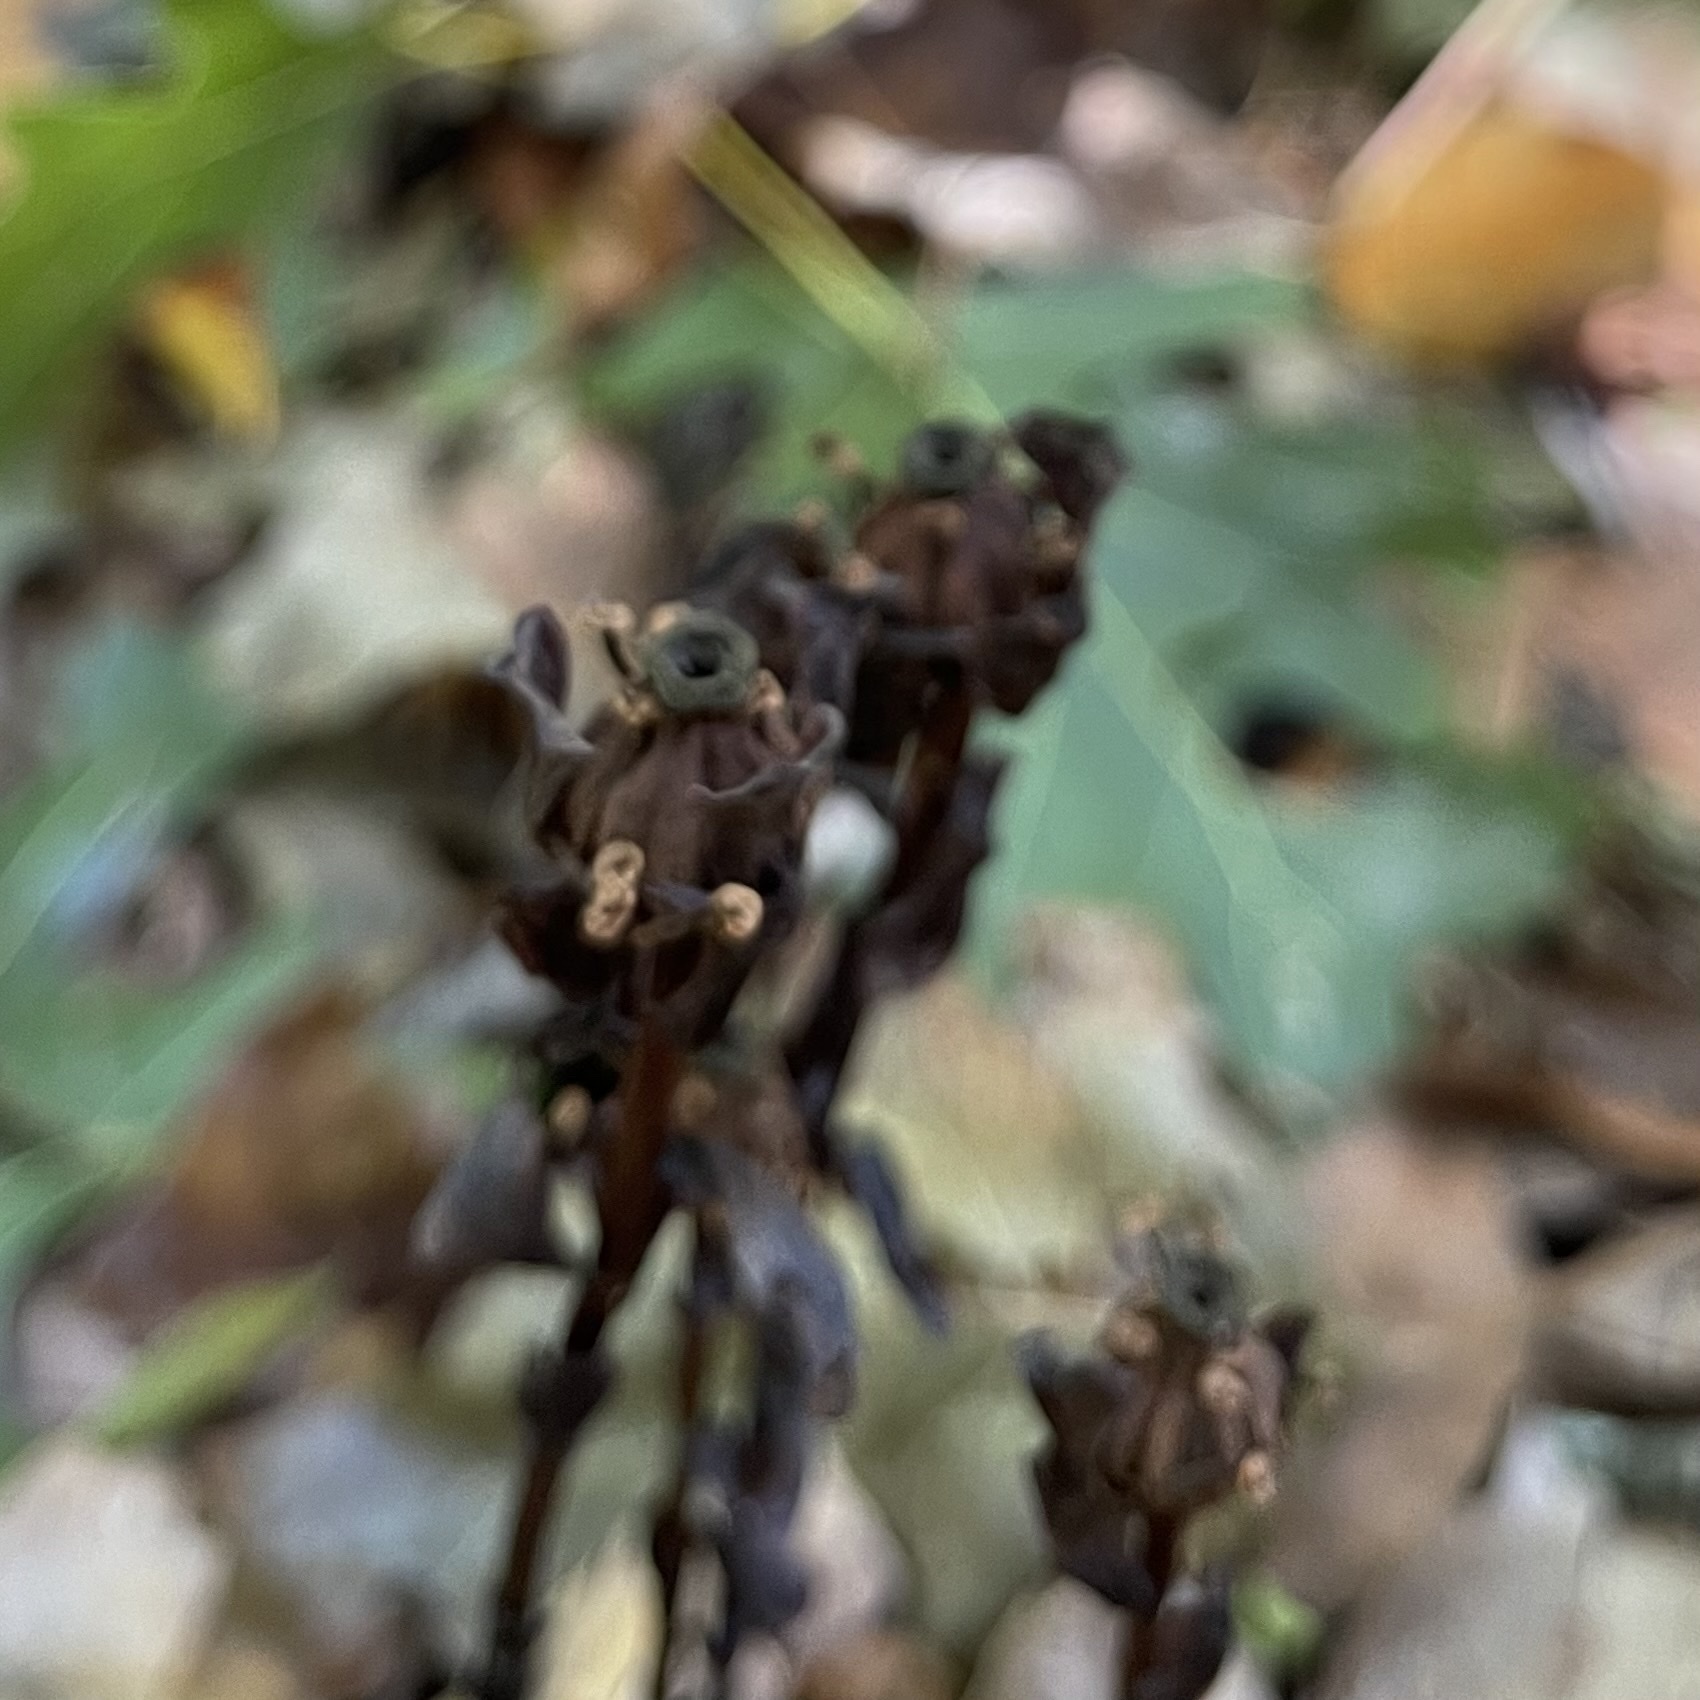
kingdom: Plantae
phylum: Tracheophyta
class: Magnoliopsida
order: Ericales
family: Ericaceae
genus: Monotropa
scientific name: Monotropa uniflora
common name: Convulsion root
